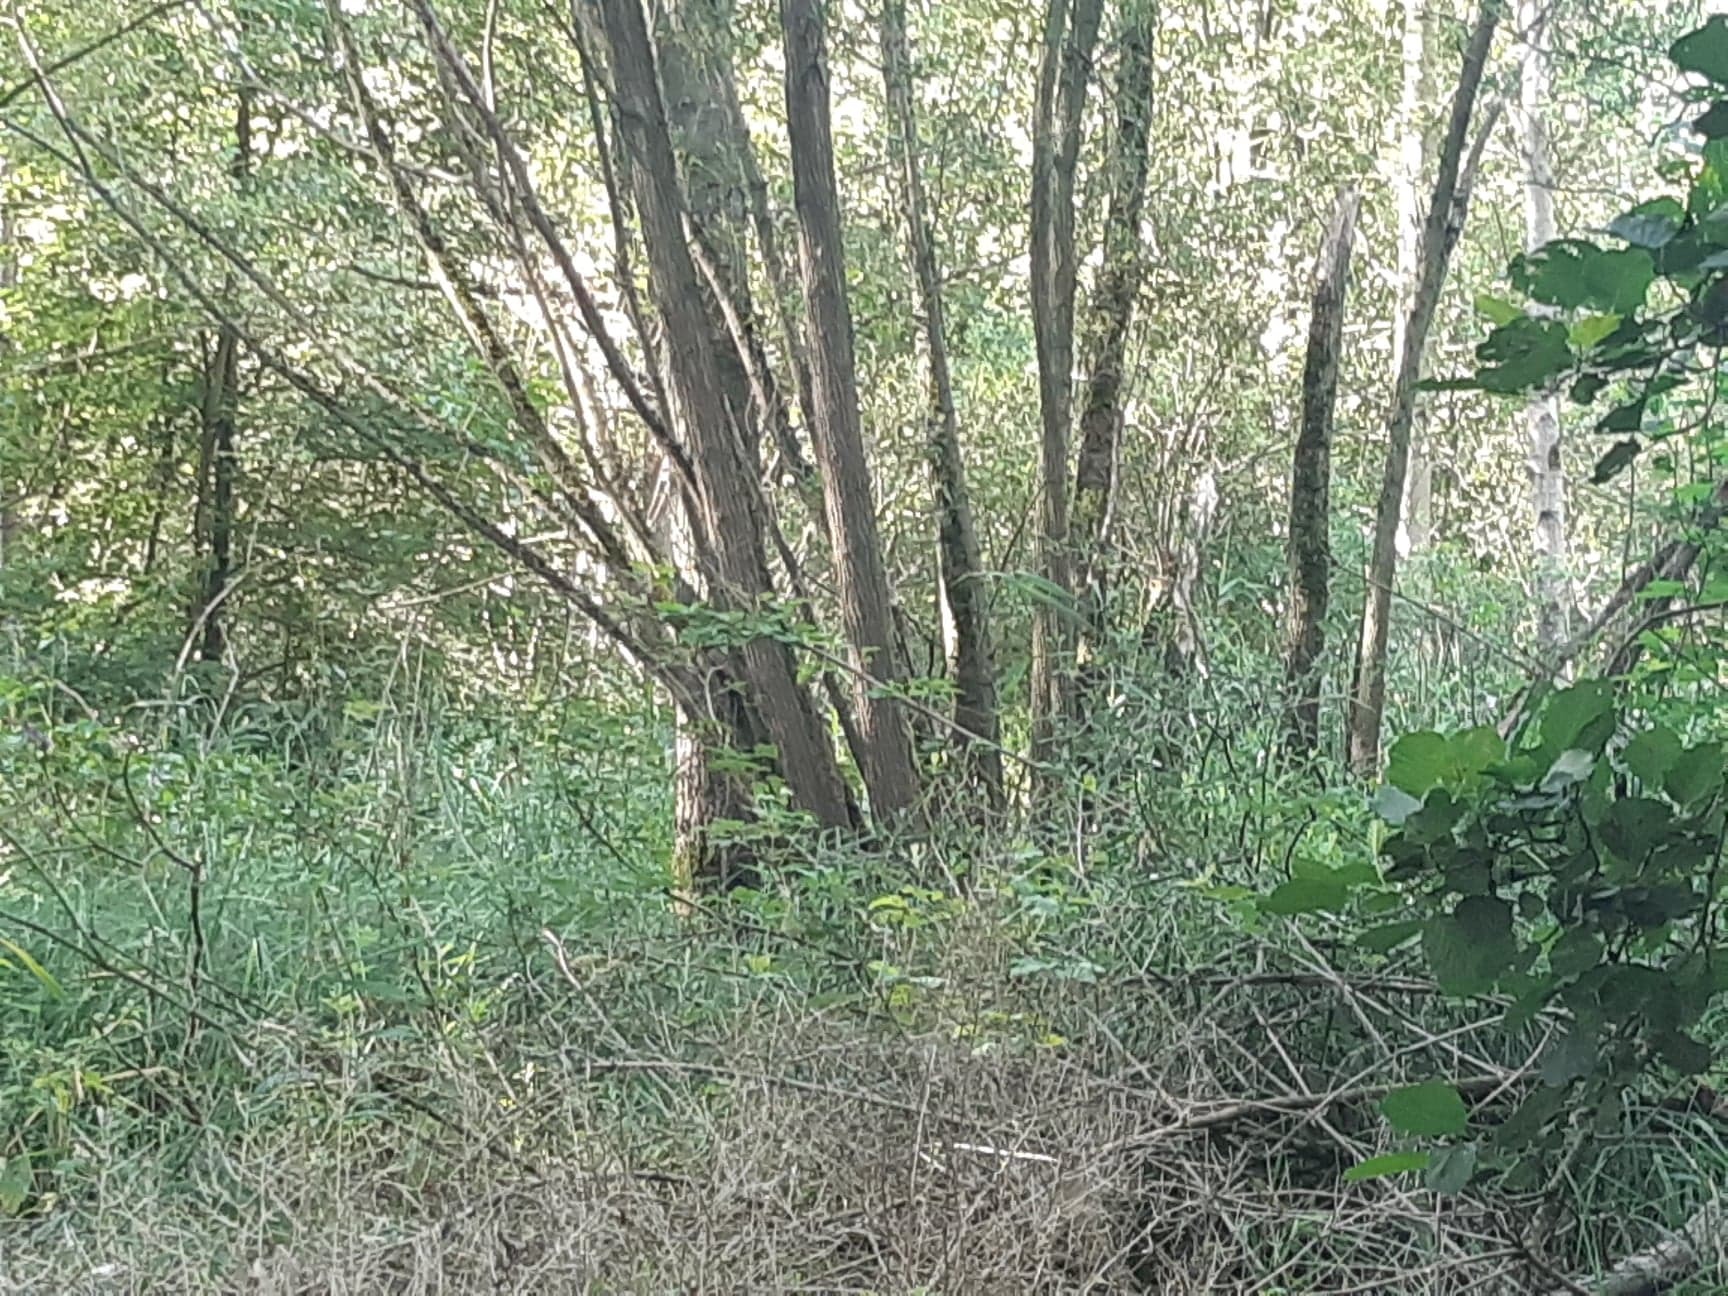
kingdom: Animalia
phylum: Arthropoda
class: Insecta
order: Hymenoptera
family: Vespidae
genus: Vespa
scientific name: Vespa velutina
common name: Asian hornet
